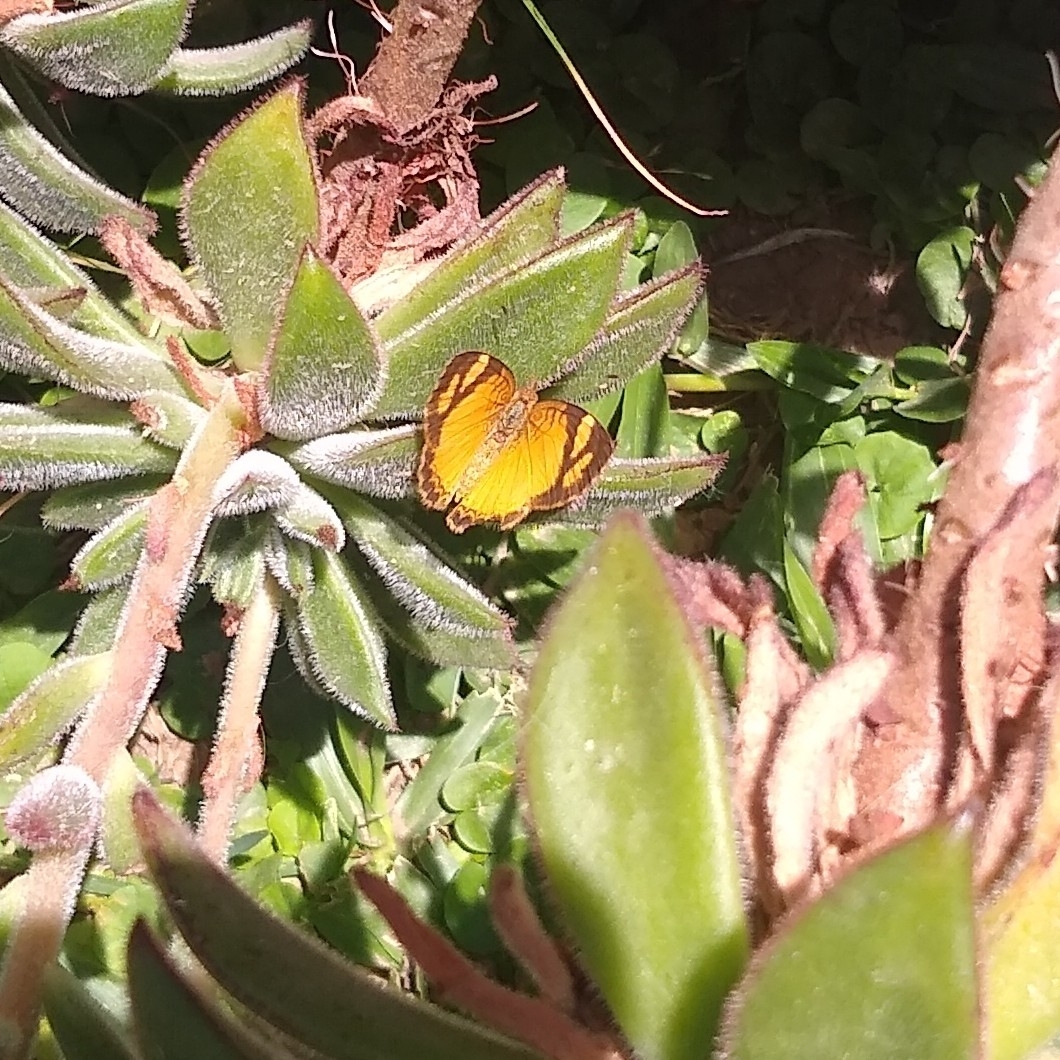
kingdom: Animalia
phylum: Arthropoda
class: Insecta
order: Lepidoptera
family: Nymphalidae
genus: Tegosa
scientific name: Tegosa claudina
